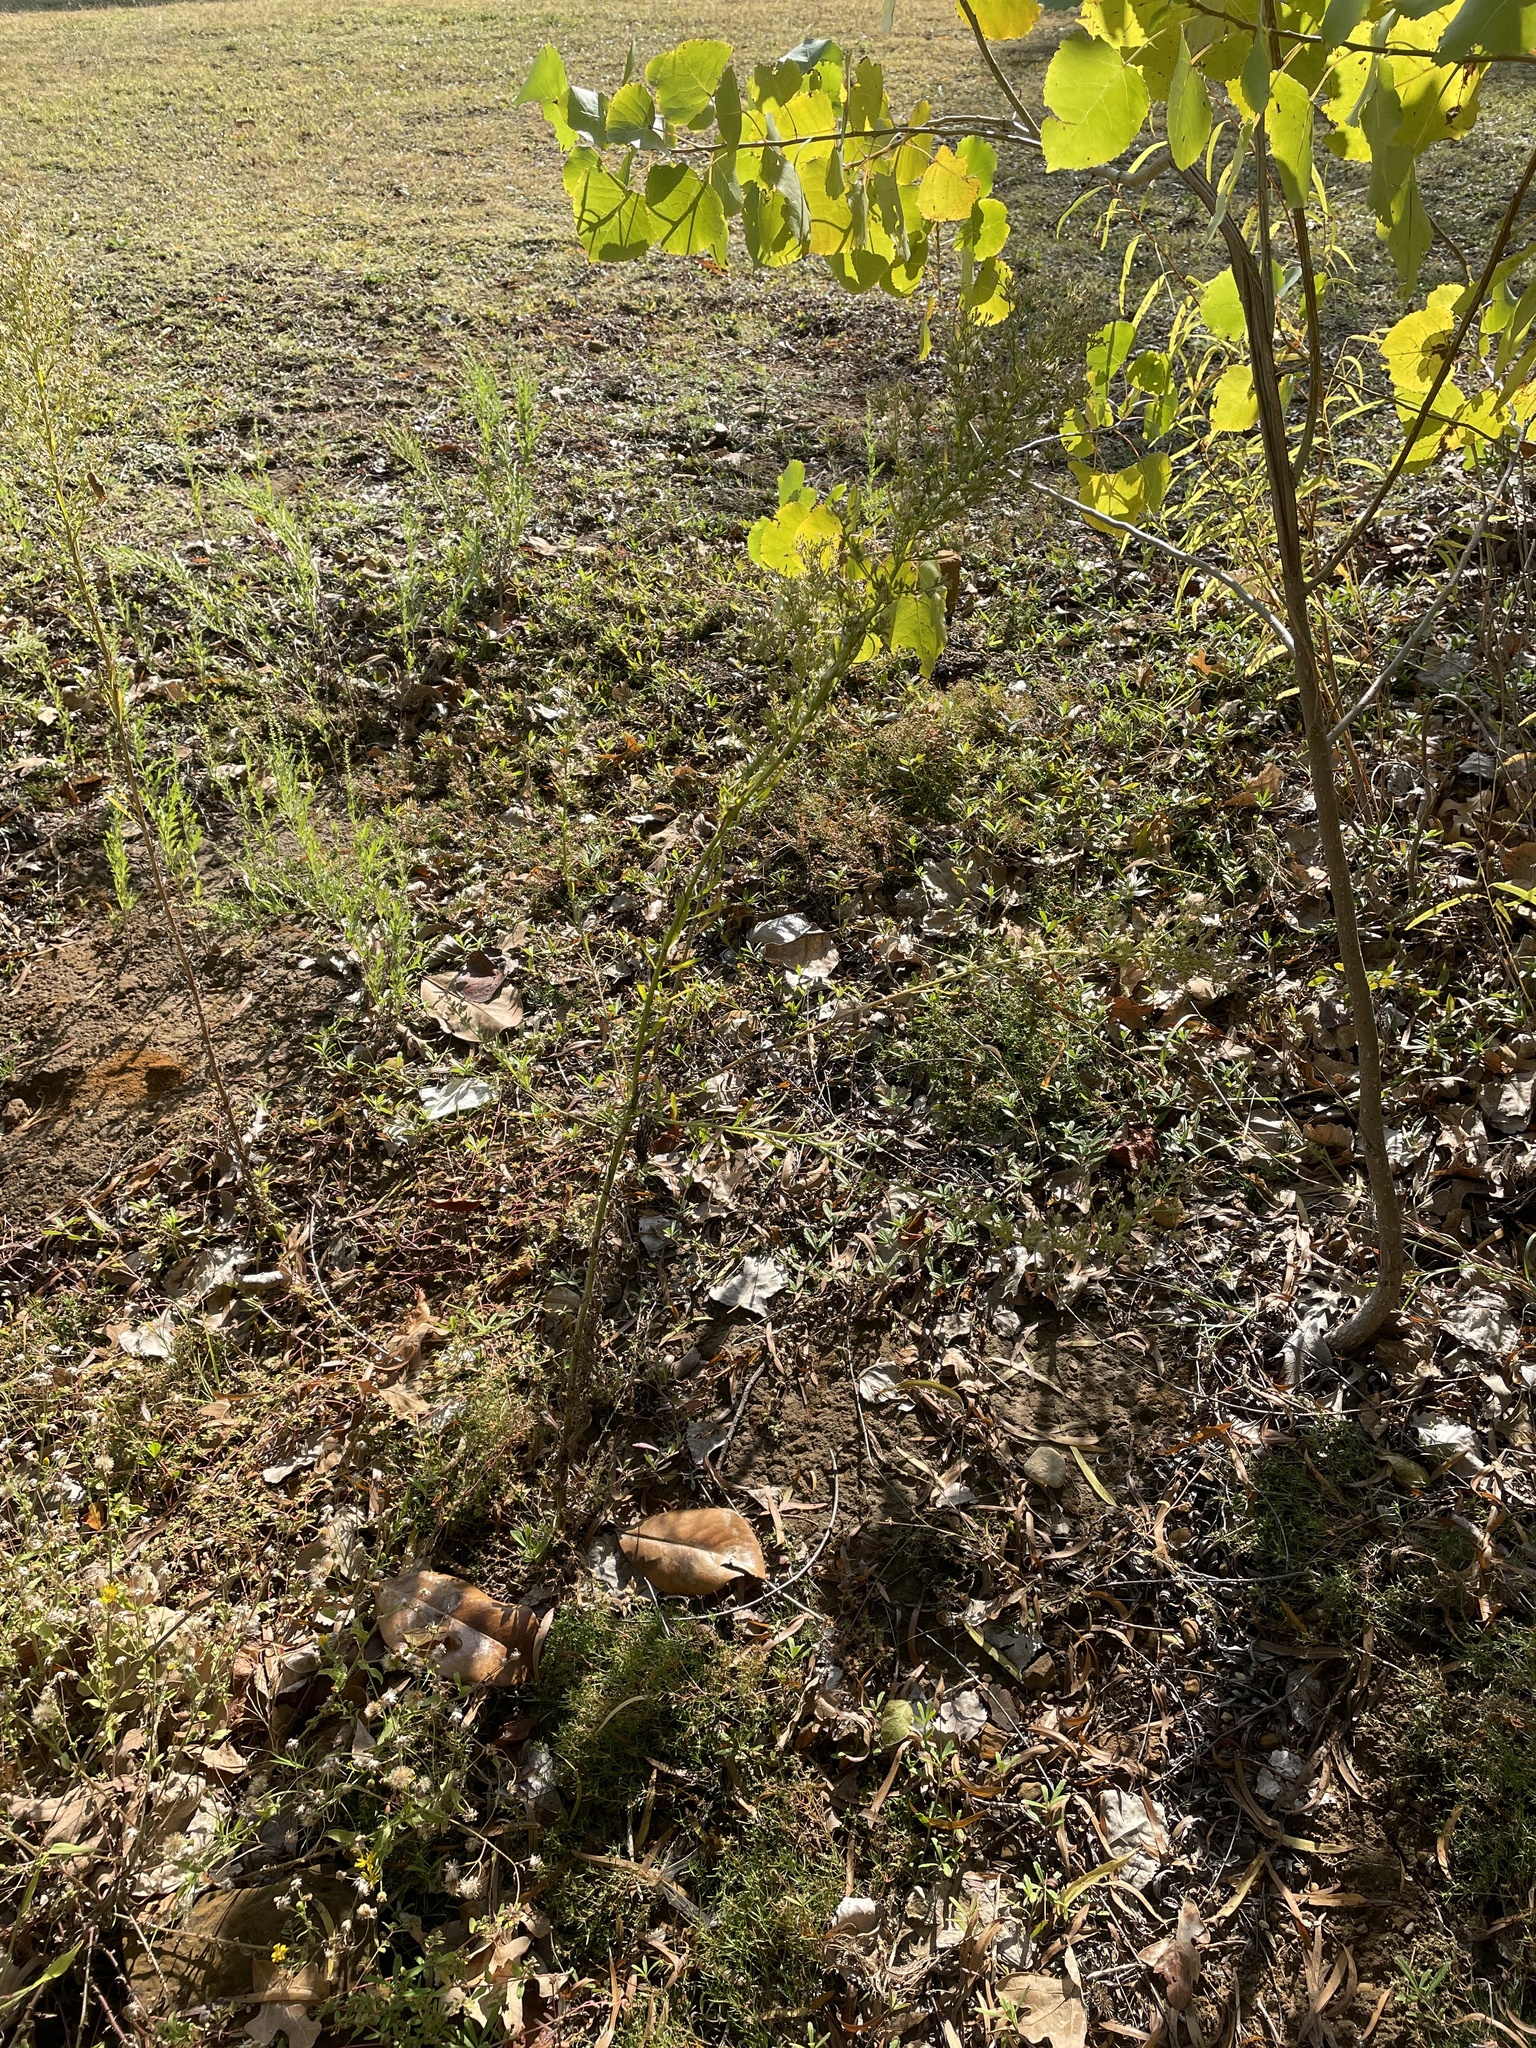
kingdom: Plantae
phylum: Tracheophyta
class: Magnoliopsida
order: Asterales
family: Asteraceae
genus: Erigeron
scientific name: Erigeron canadensis
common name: Canadian fleabane
